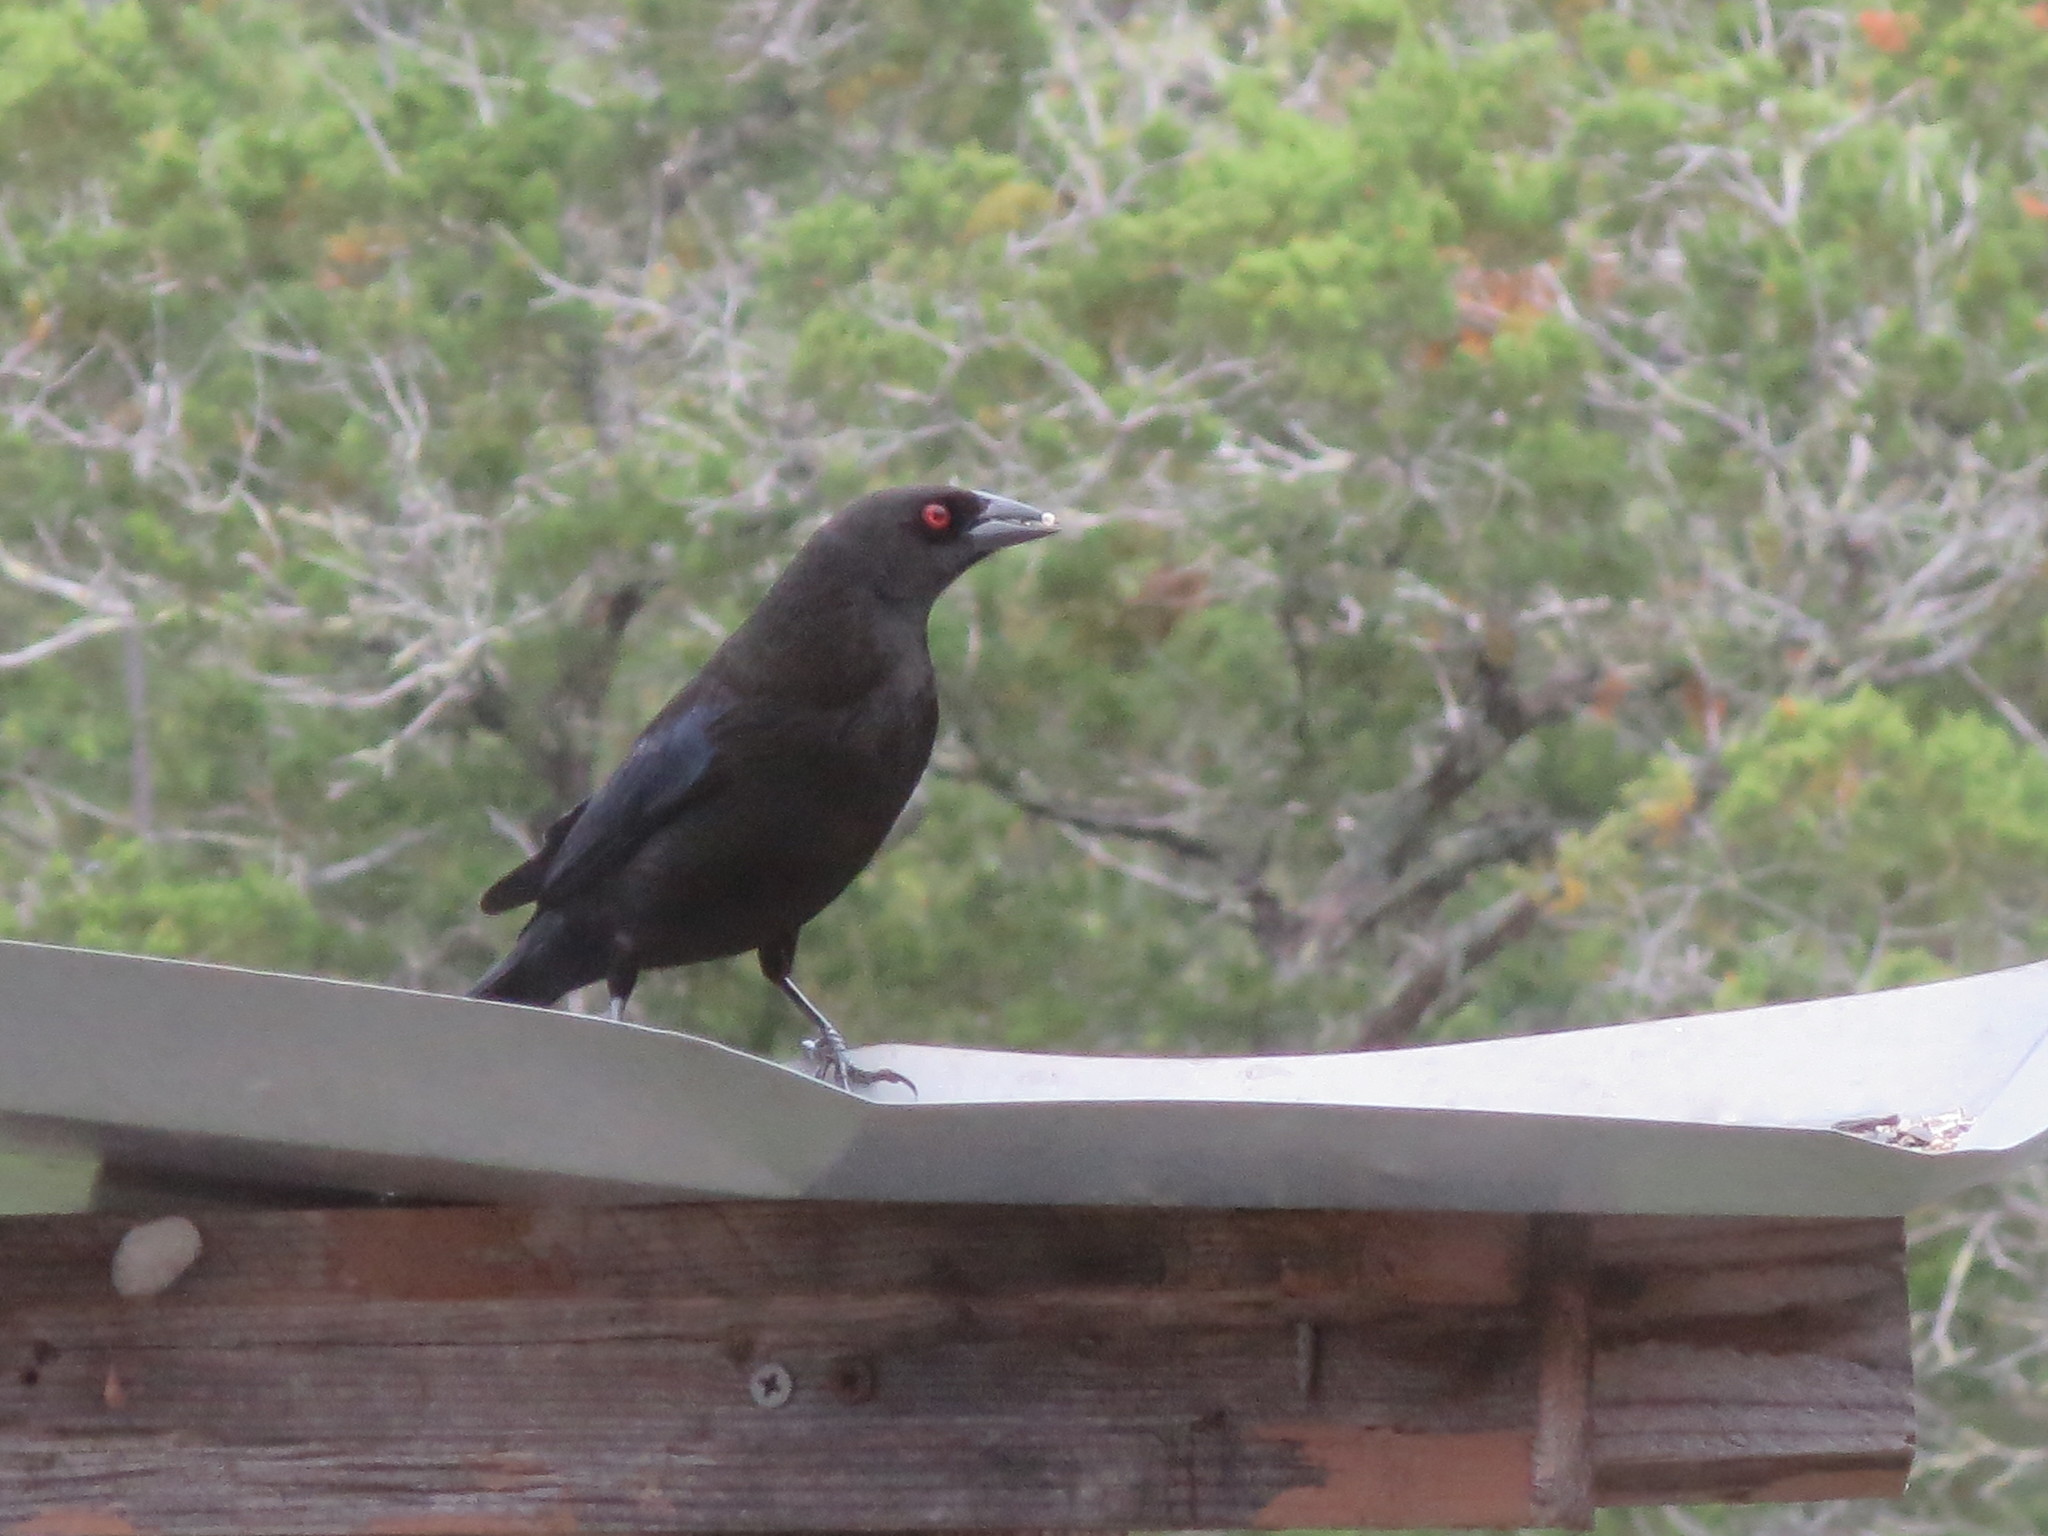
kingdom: Animalia
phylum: Chordata
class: Aves
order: Passeriformes
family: Icteridae
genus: Molothrus
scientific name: Molothrus aeneus
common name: Bronzed cowbird
